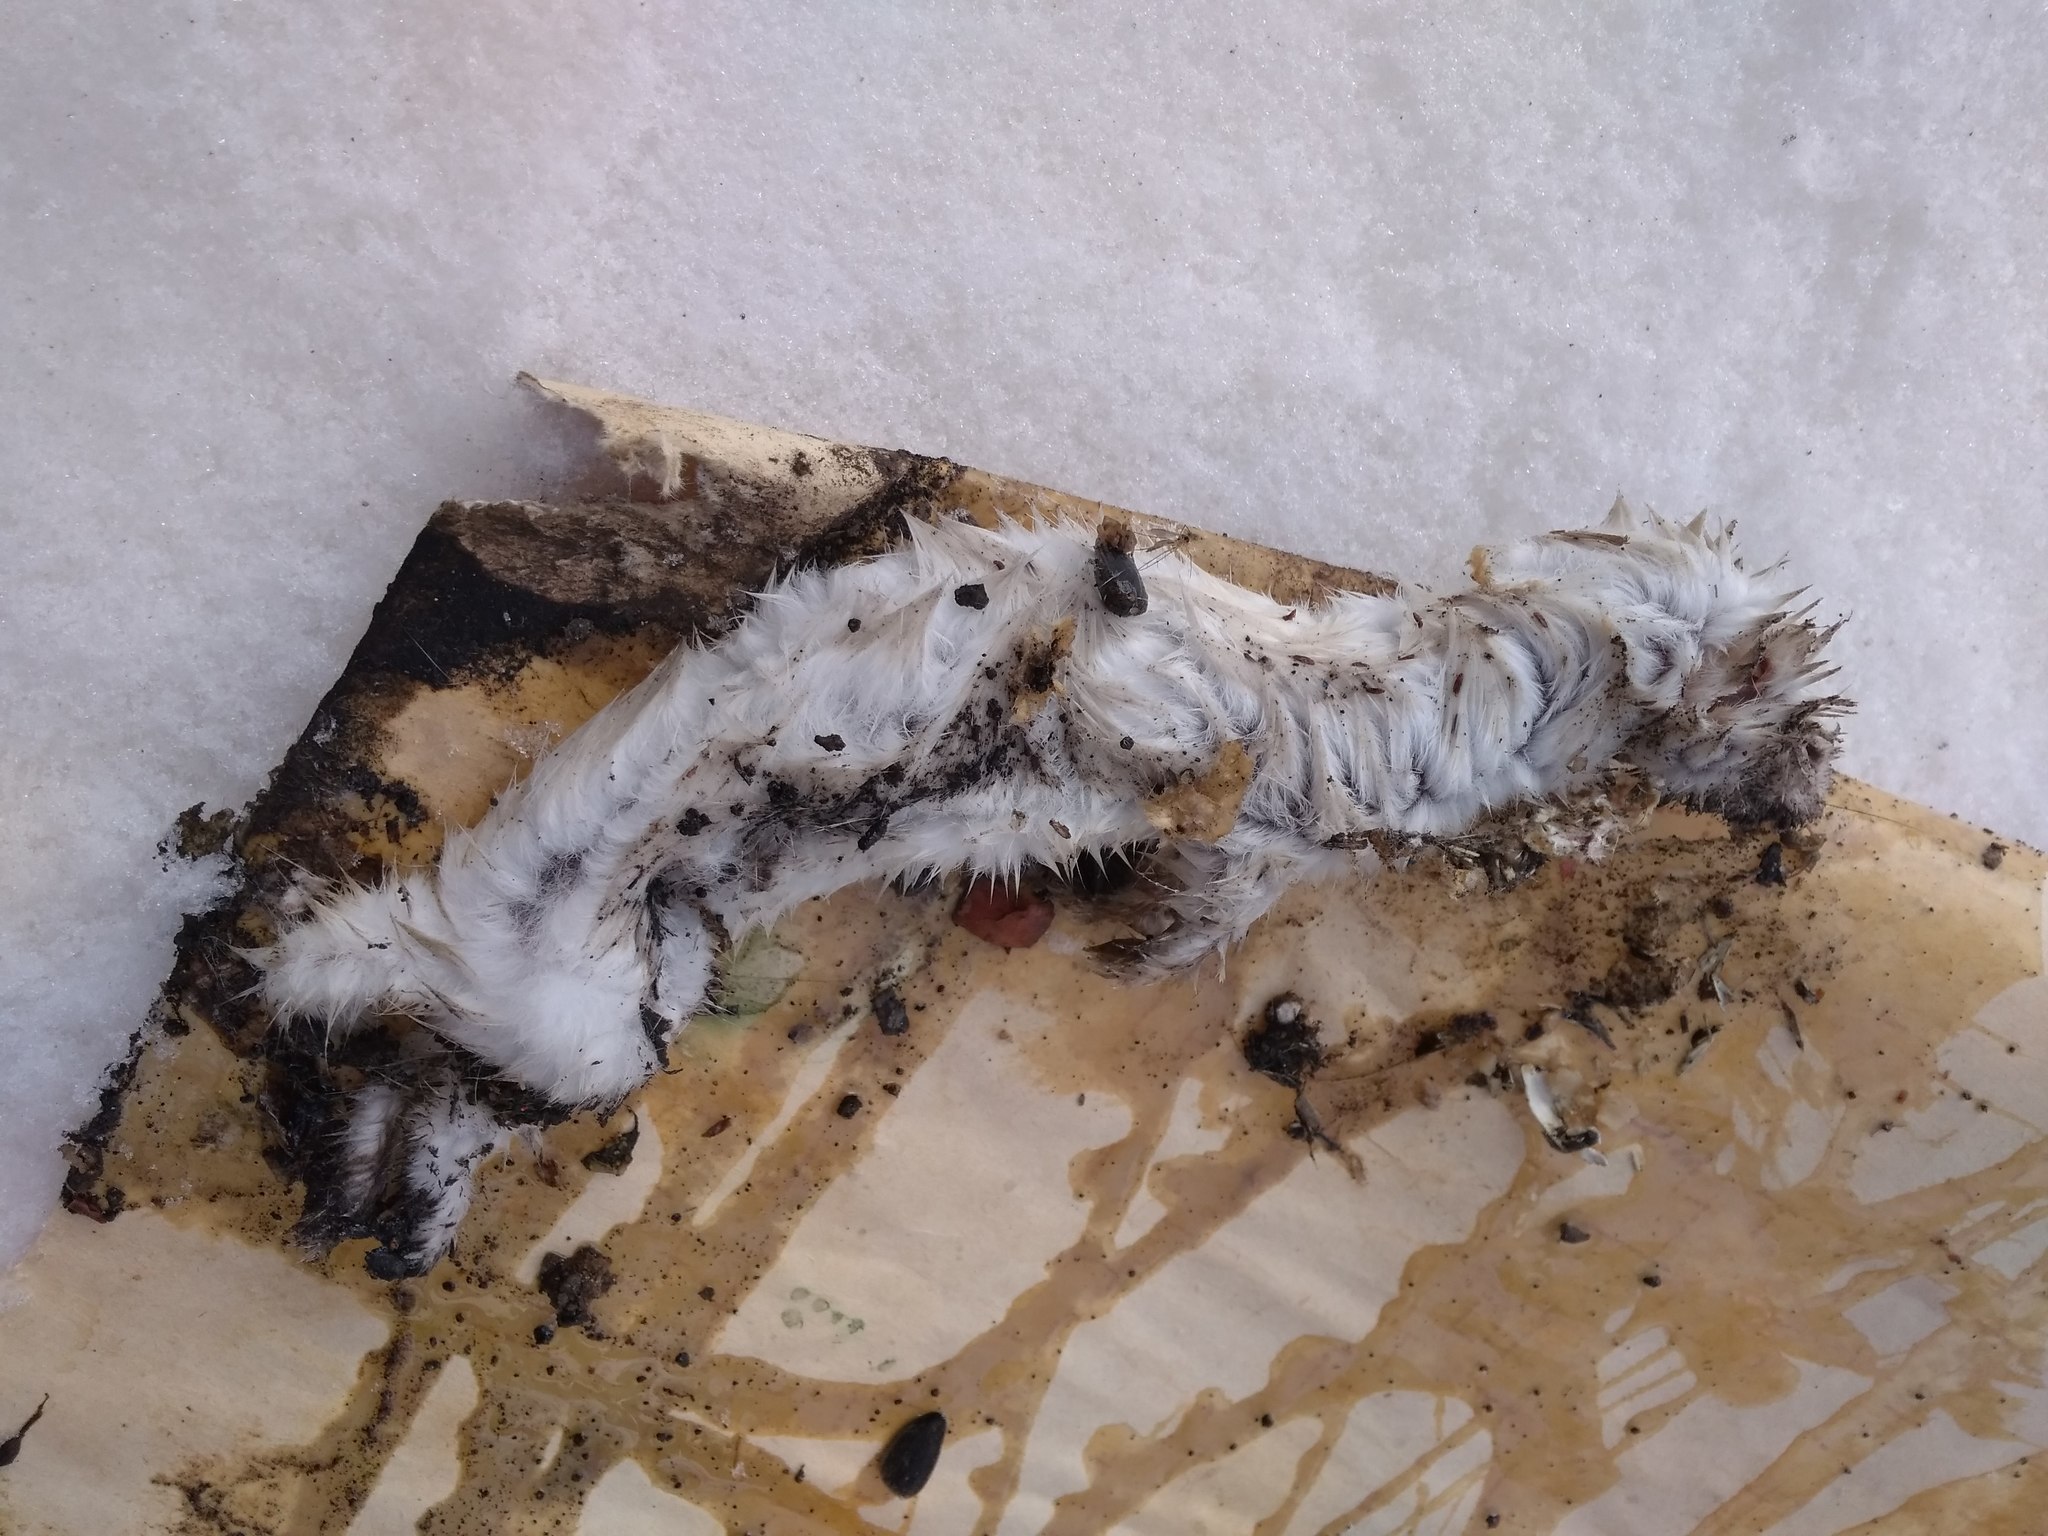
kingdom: Animalia
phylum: Chordata
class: Mammalia
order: Carnivora
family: Mustelidae
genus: Mustela
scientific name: Mustela nivalis
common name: Least weasel
